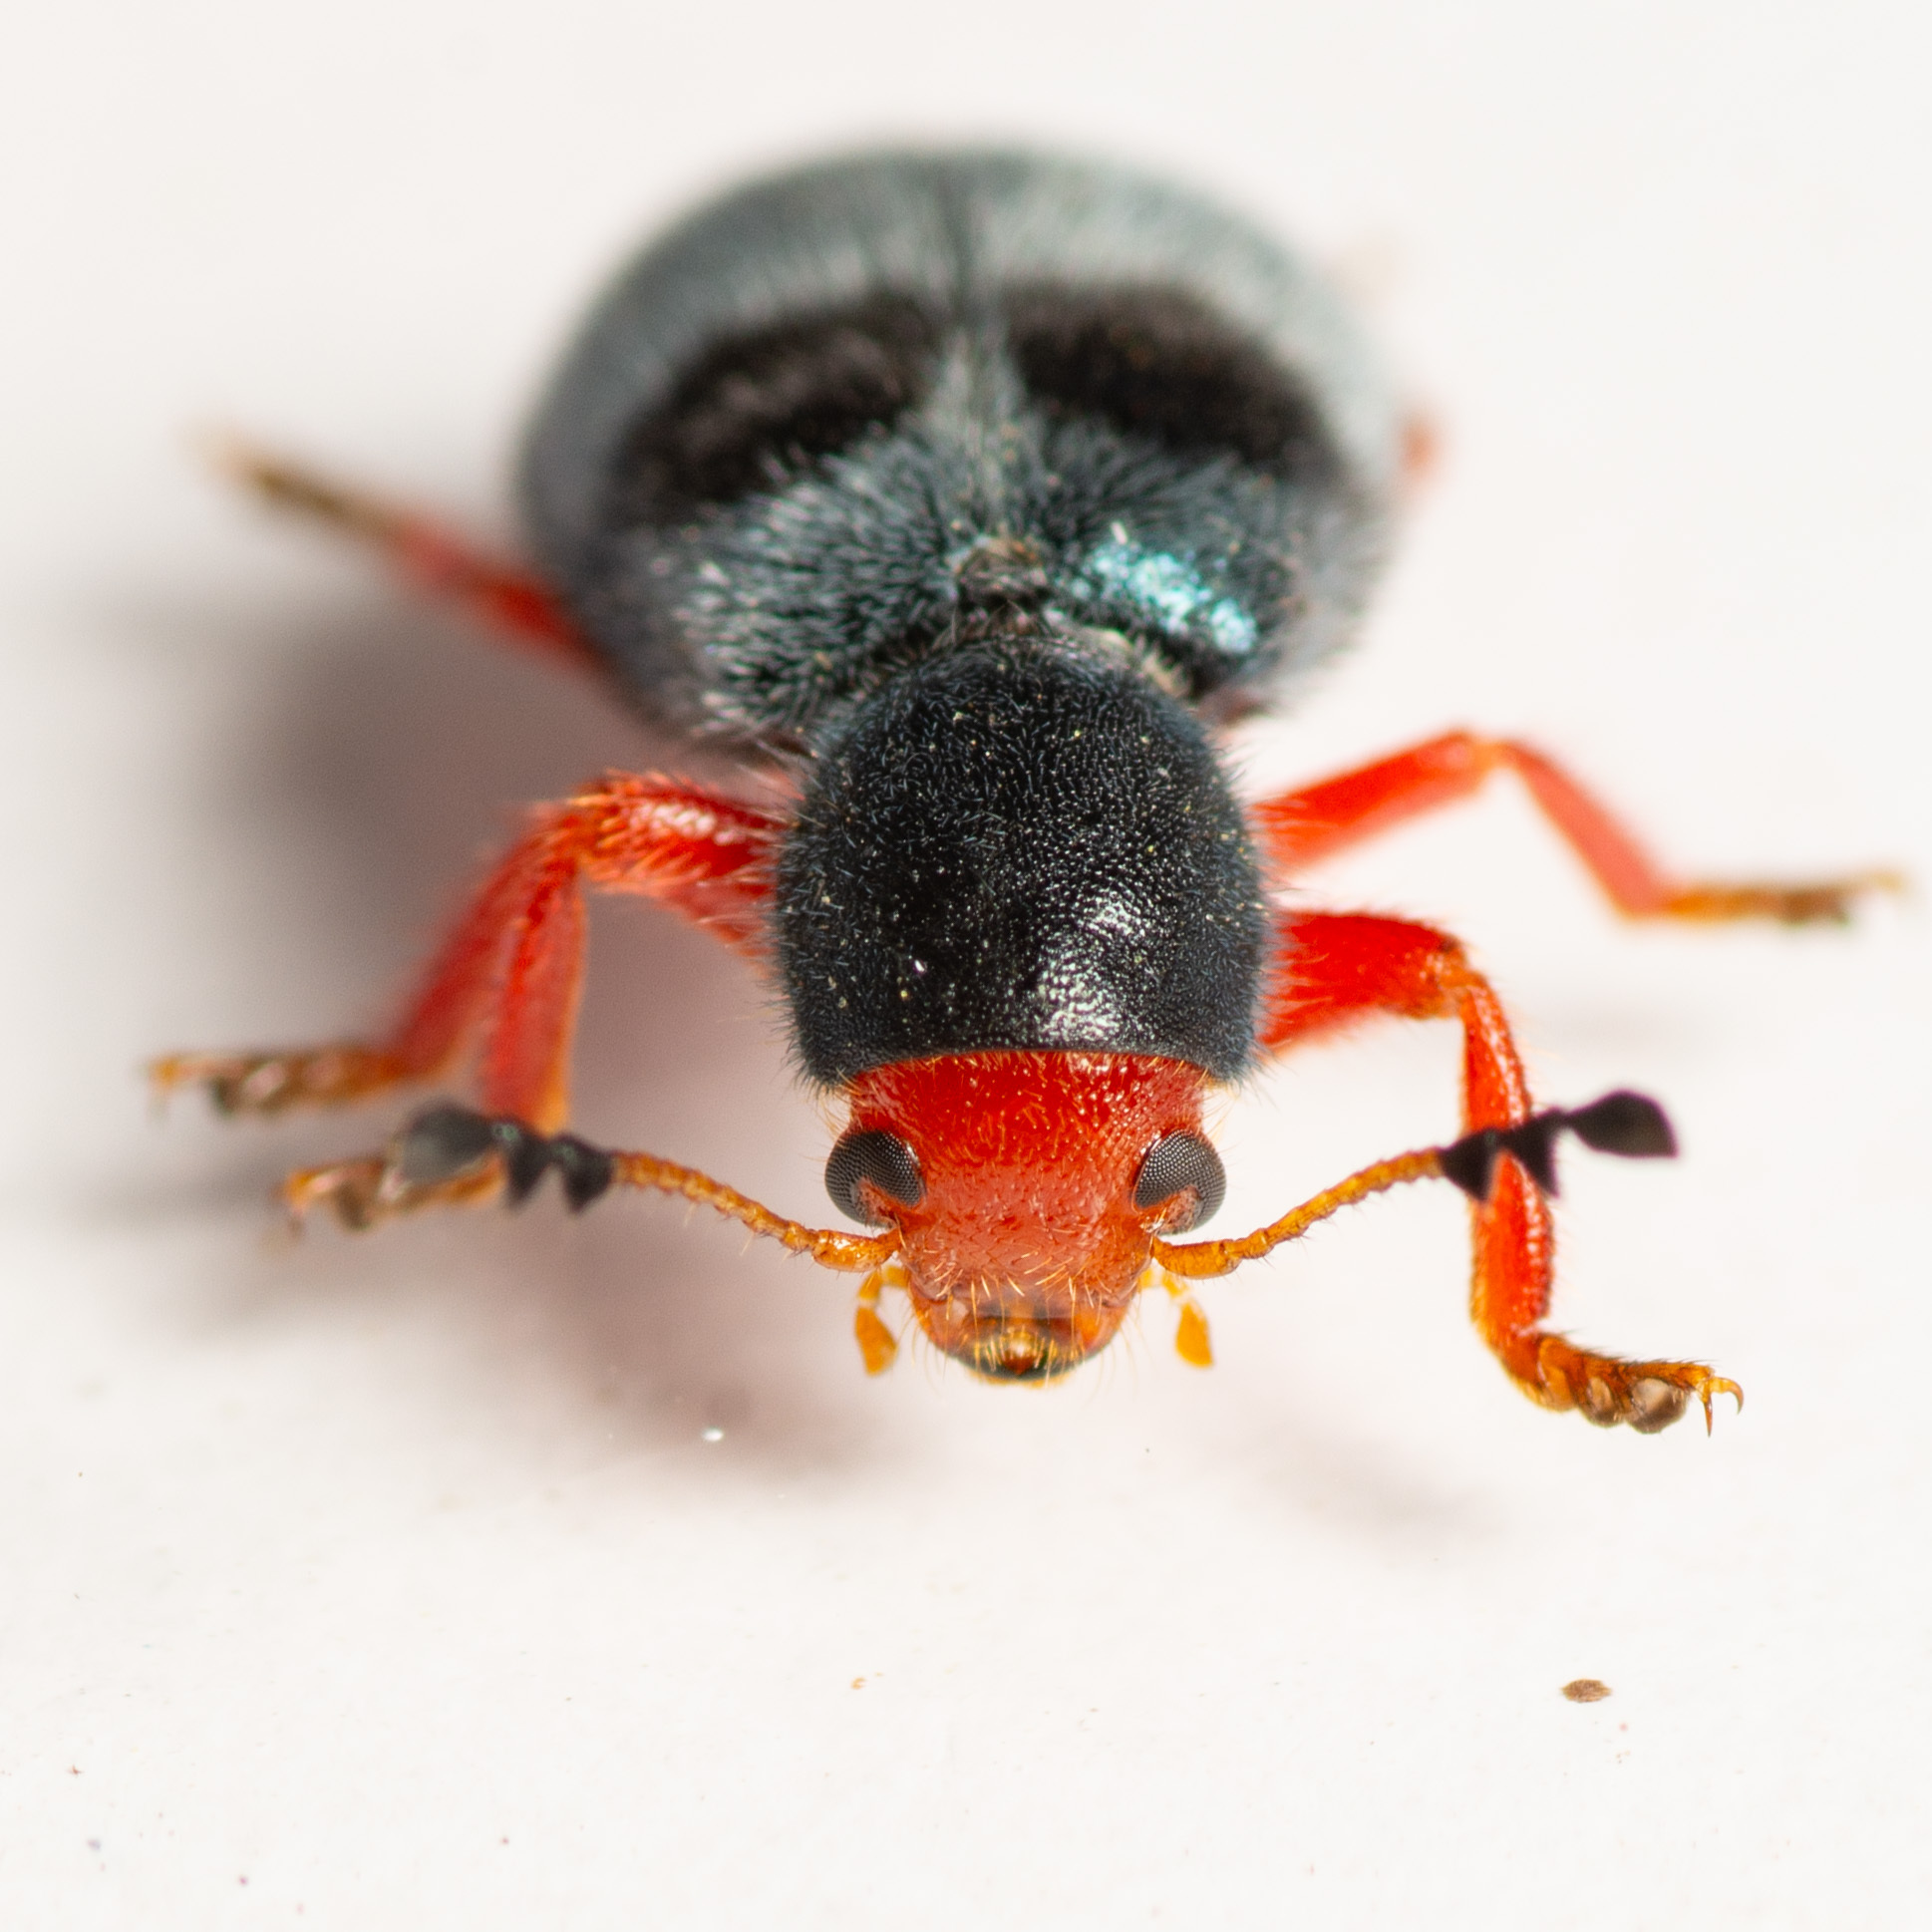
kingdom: Animalia
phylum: Arthropoda
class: Insecta
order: Coleoptera
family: Cleridae
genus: Chariessa
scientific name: Chariessa vestita
